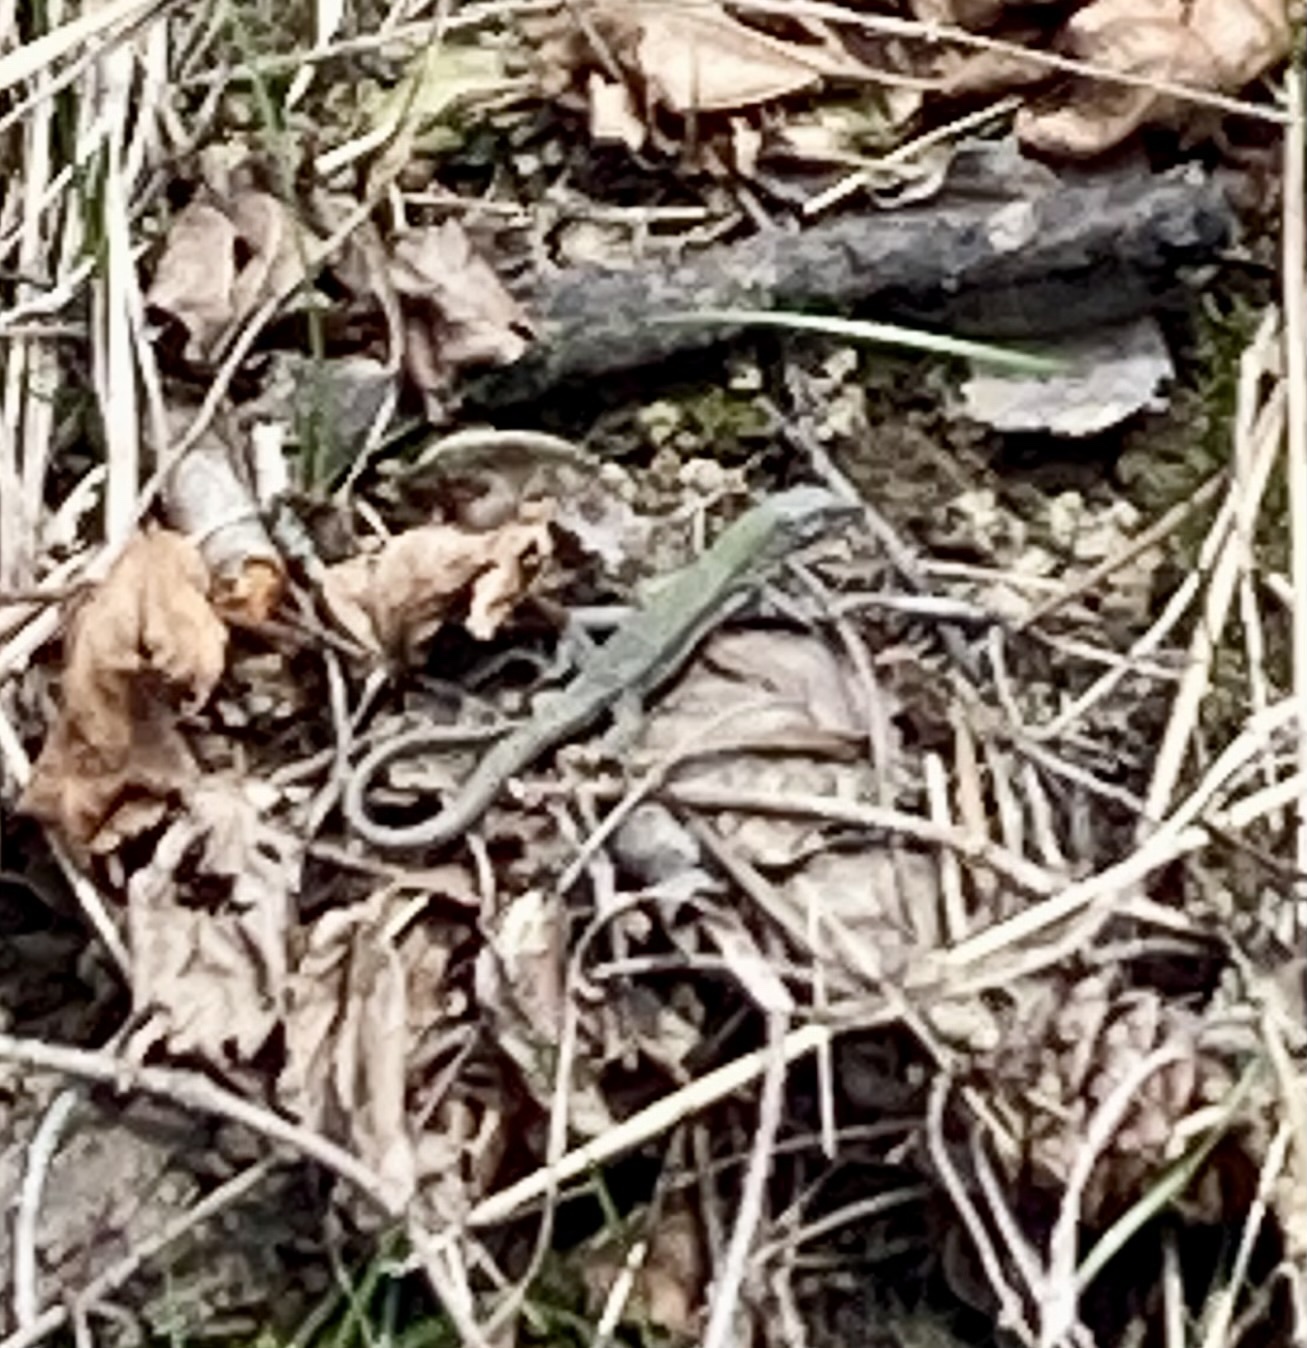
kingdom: Animalia
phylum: Chordata
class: Squamata
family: Lacertidae
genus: Podarcis
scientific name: Podarcis muralis
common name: Common wall lizard
